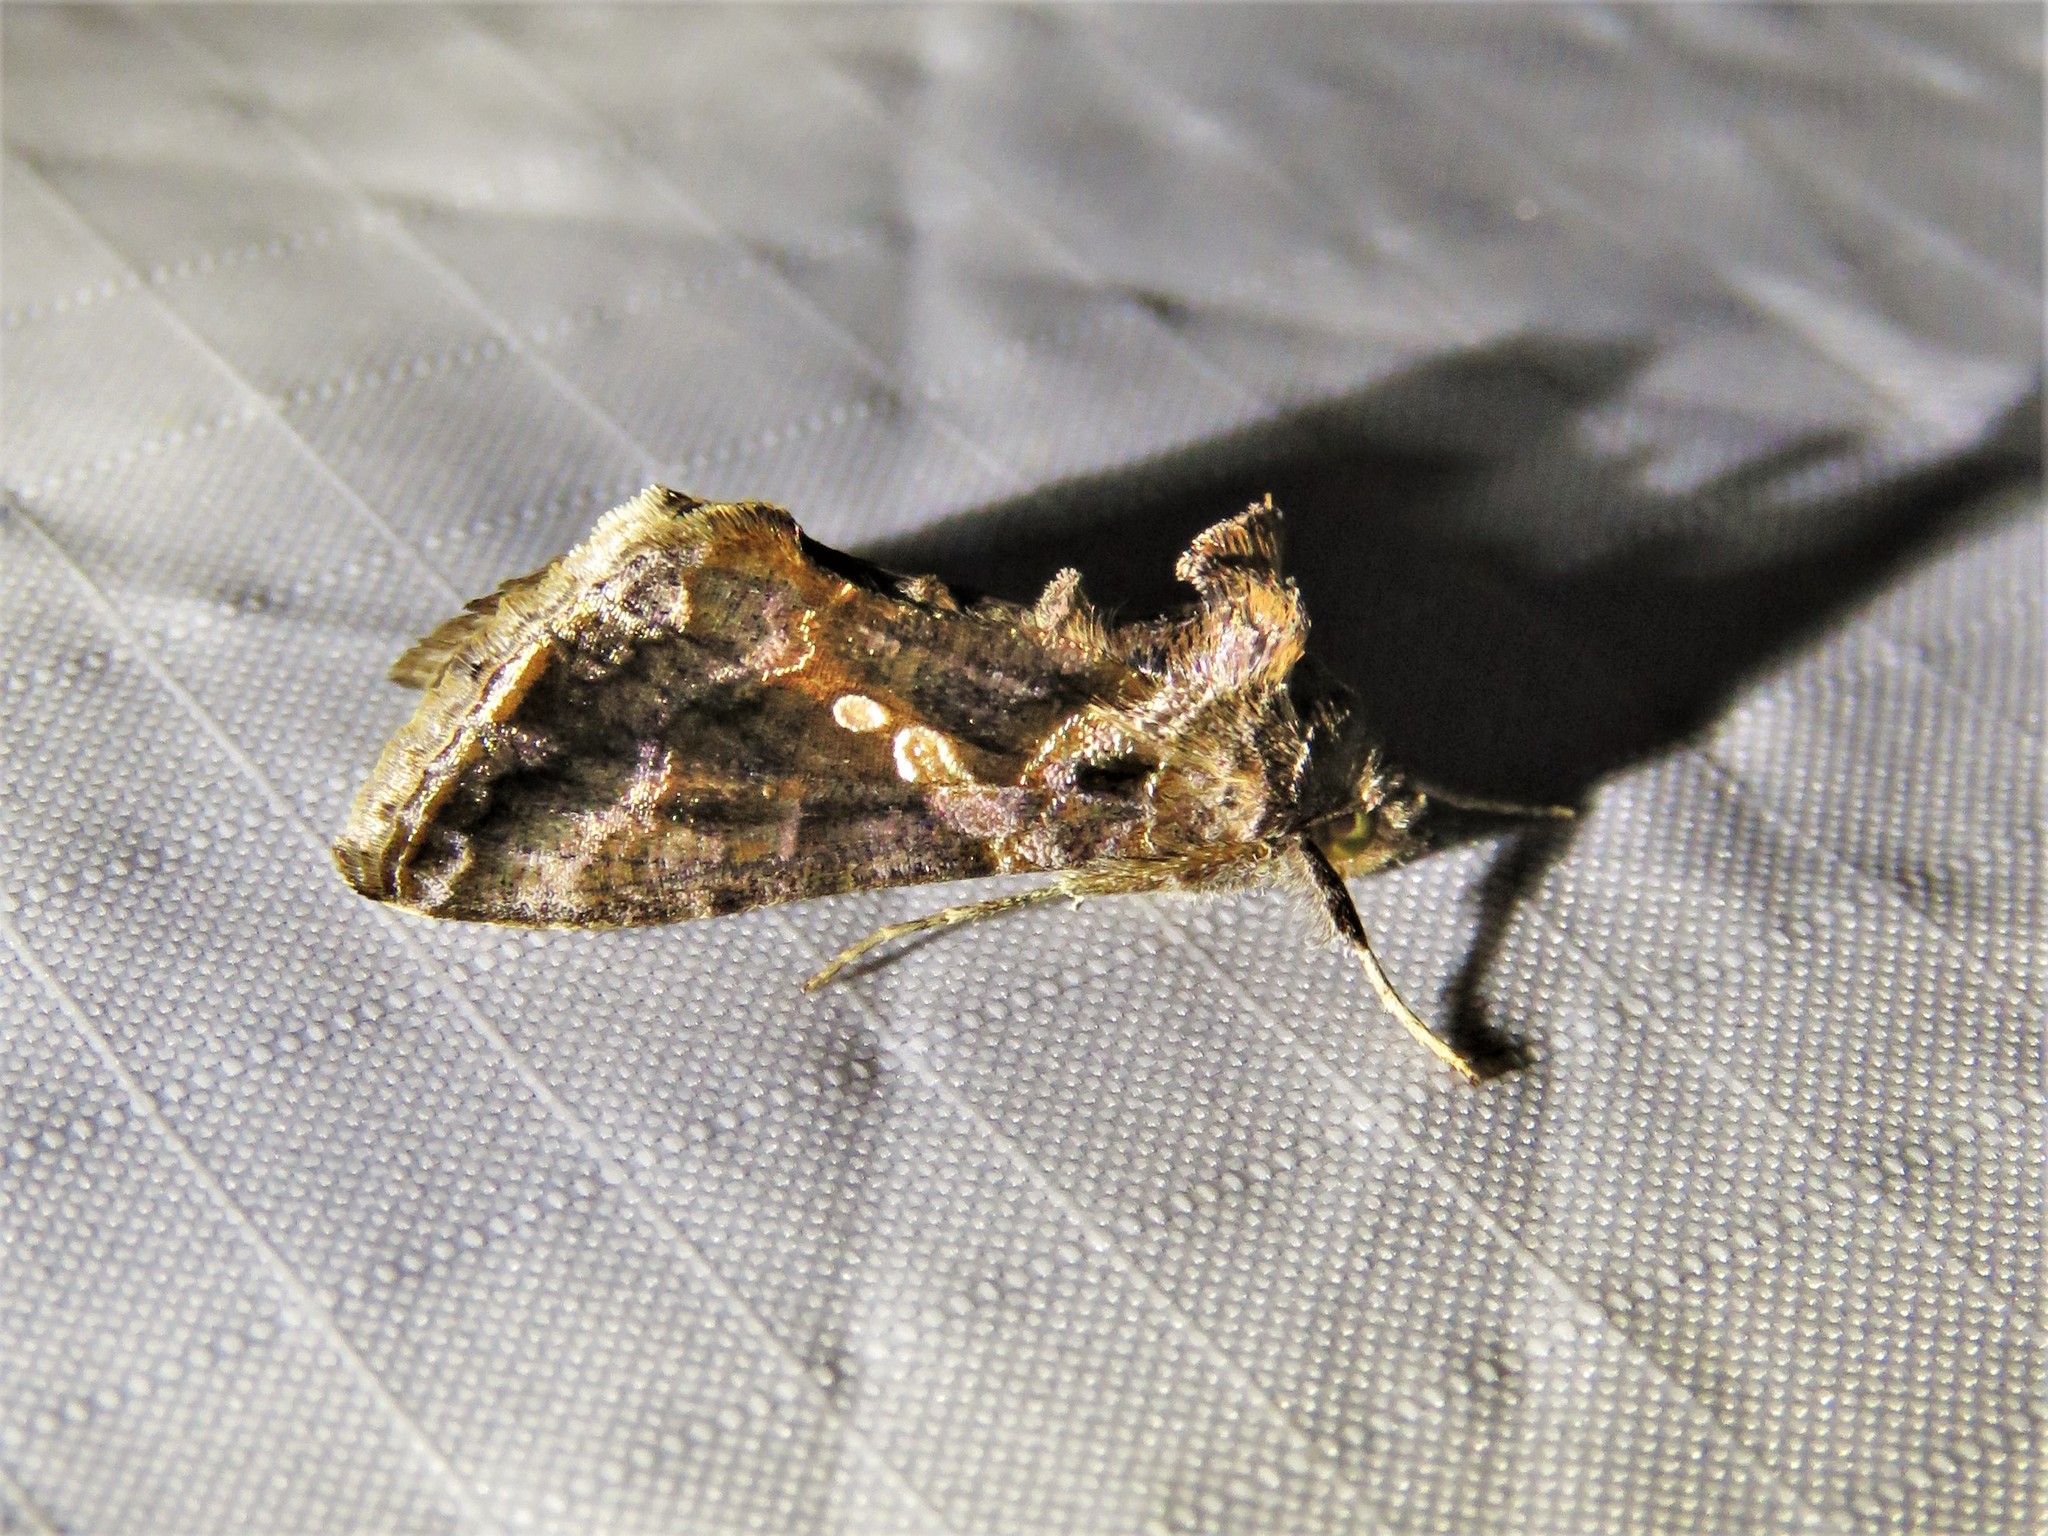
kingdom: Animalia
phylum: Arthropoda
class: Insecta
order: Lepidoptera
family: Noctuidae
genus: Chrysodeixis
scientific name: Chrysodeixis includens
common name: Cutworm moth
